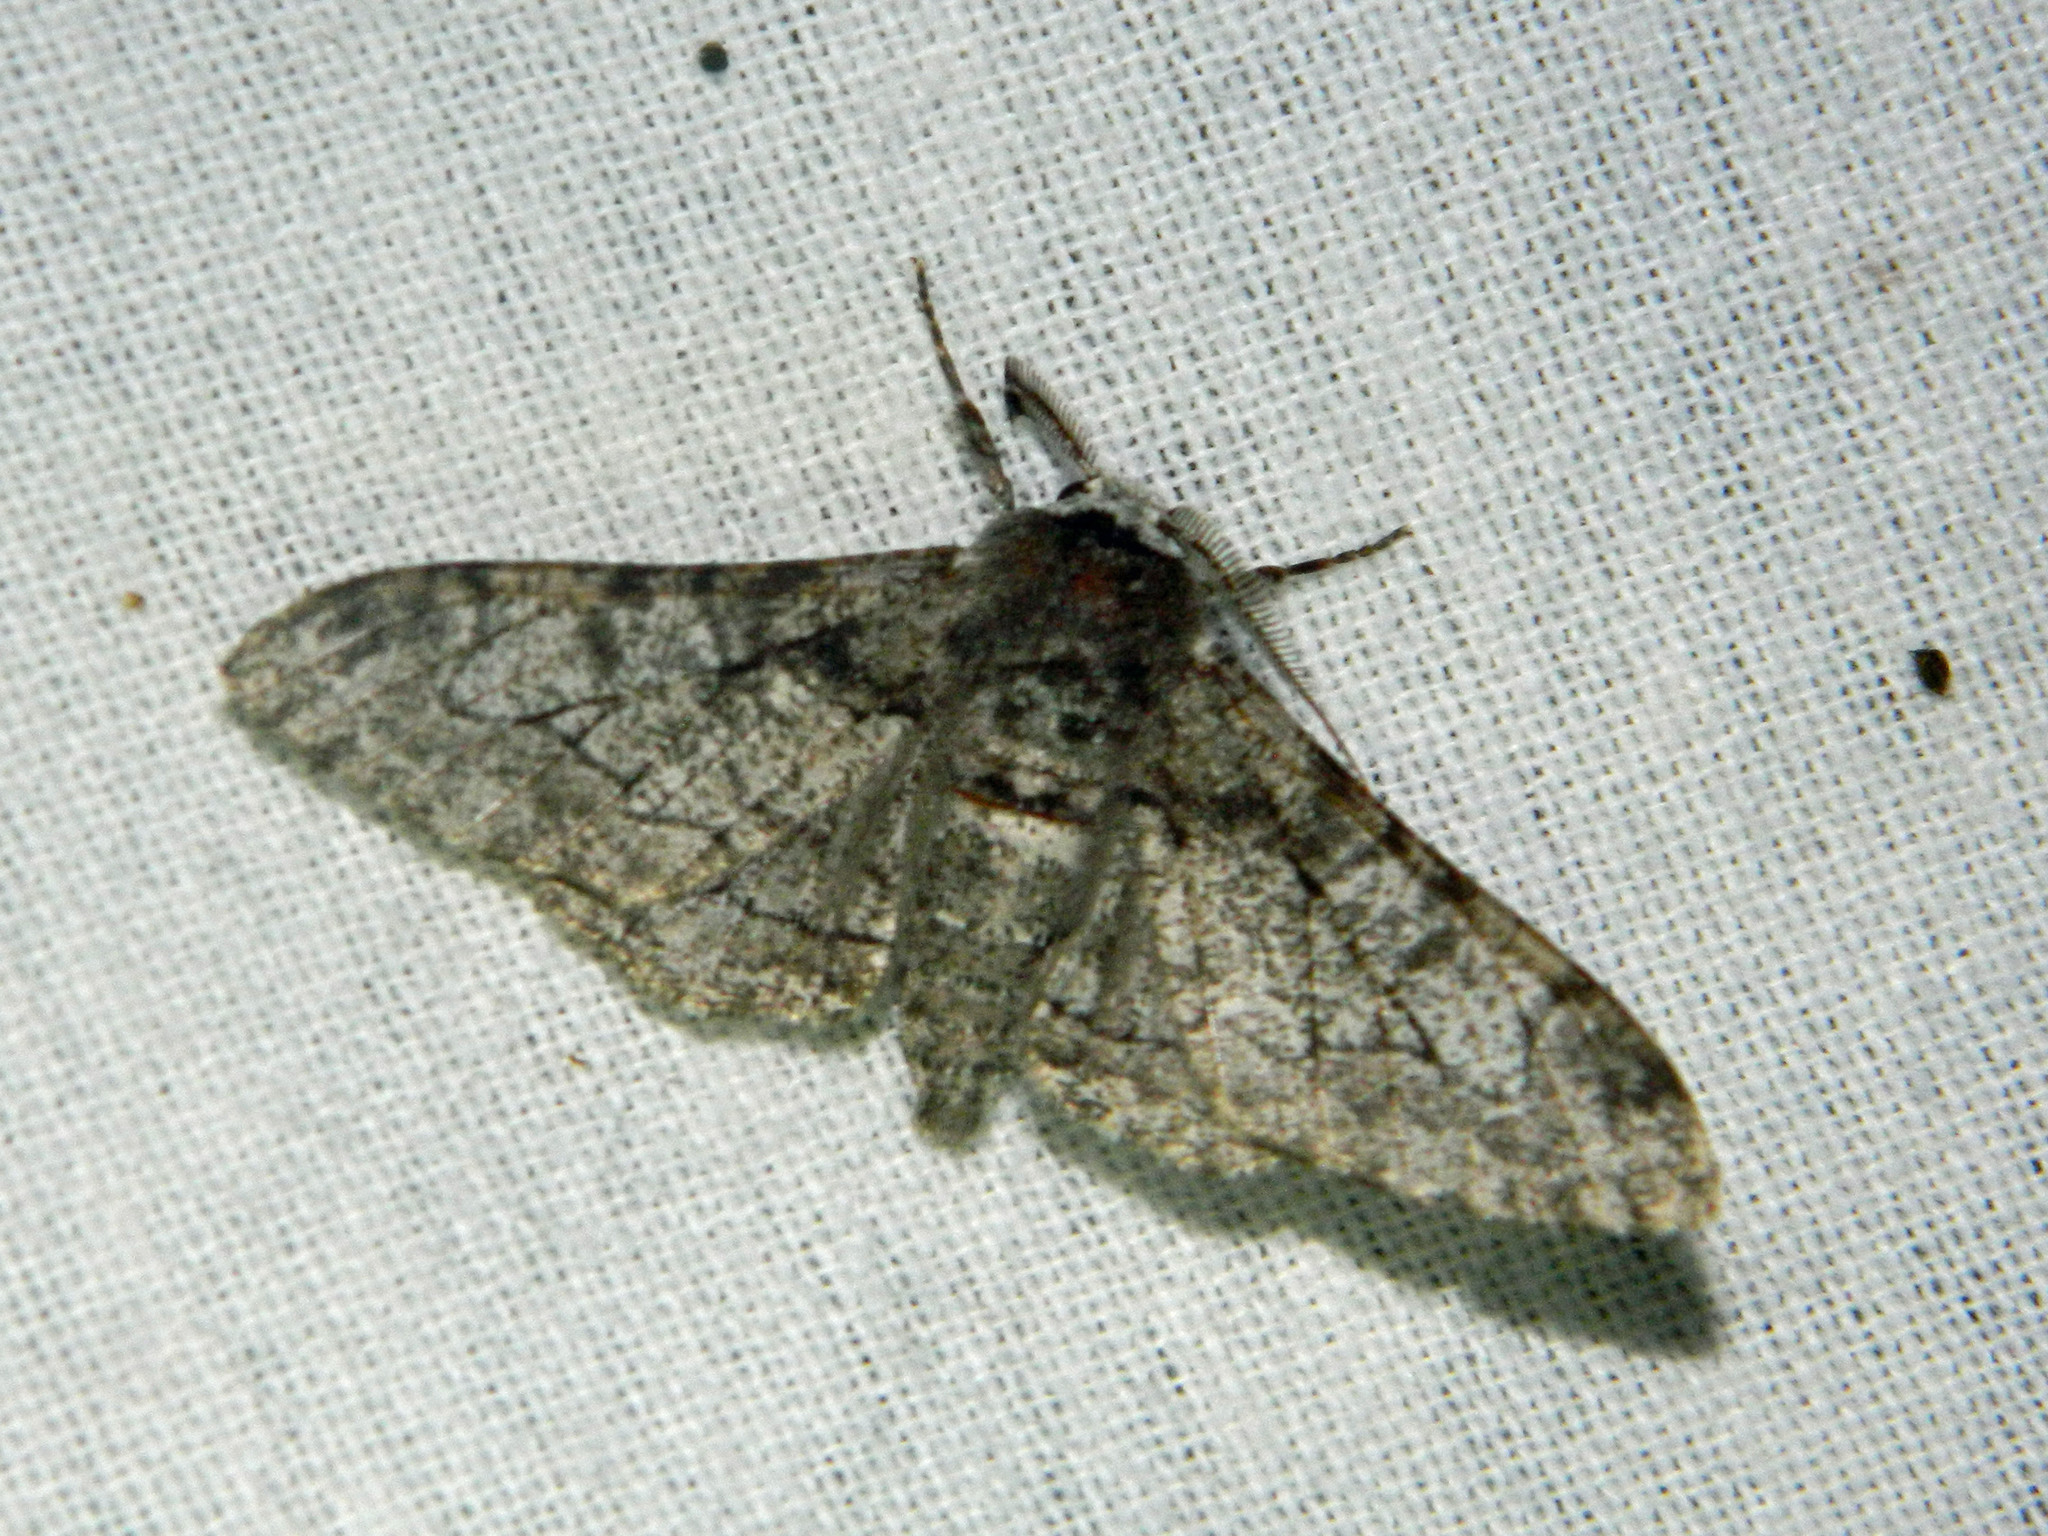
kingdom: Animalia
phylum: Arthropoda
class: Insecta
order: Lepidoptera
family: Geometridae
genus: Biston
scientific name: Biston betularia
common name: Peppered moth
